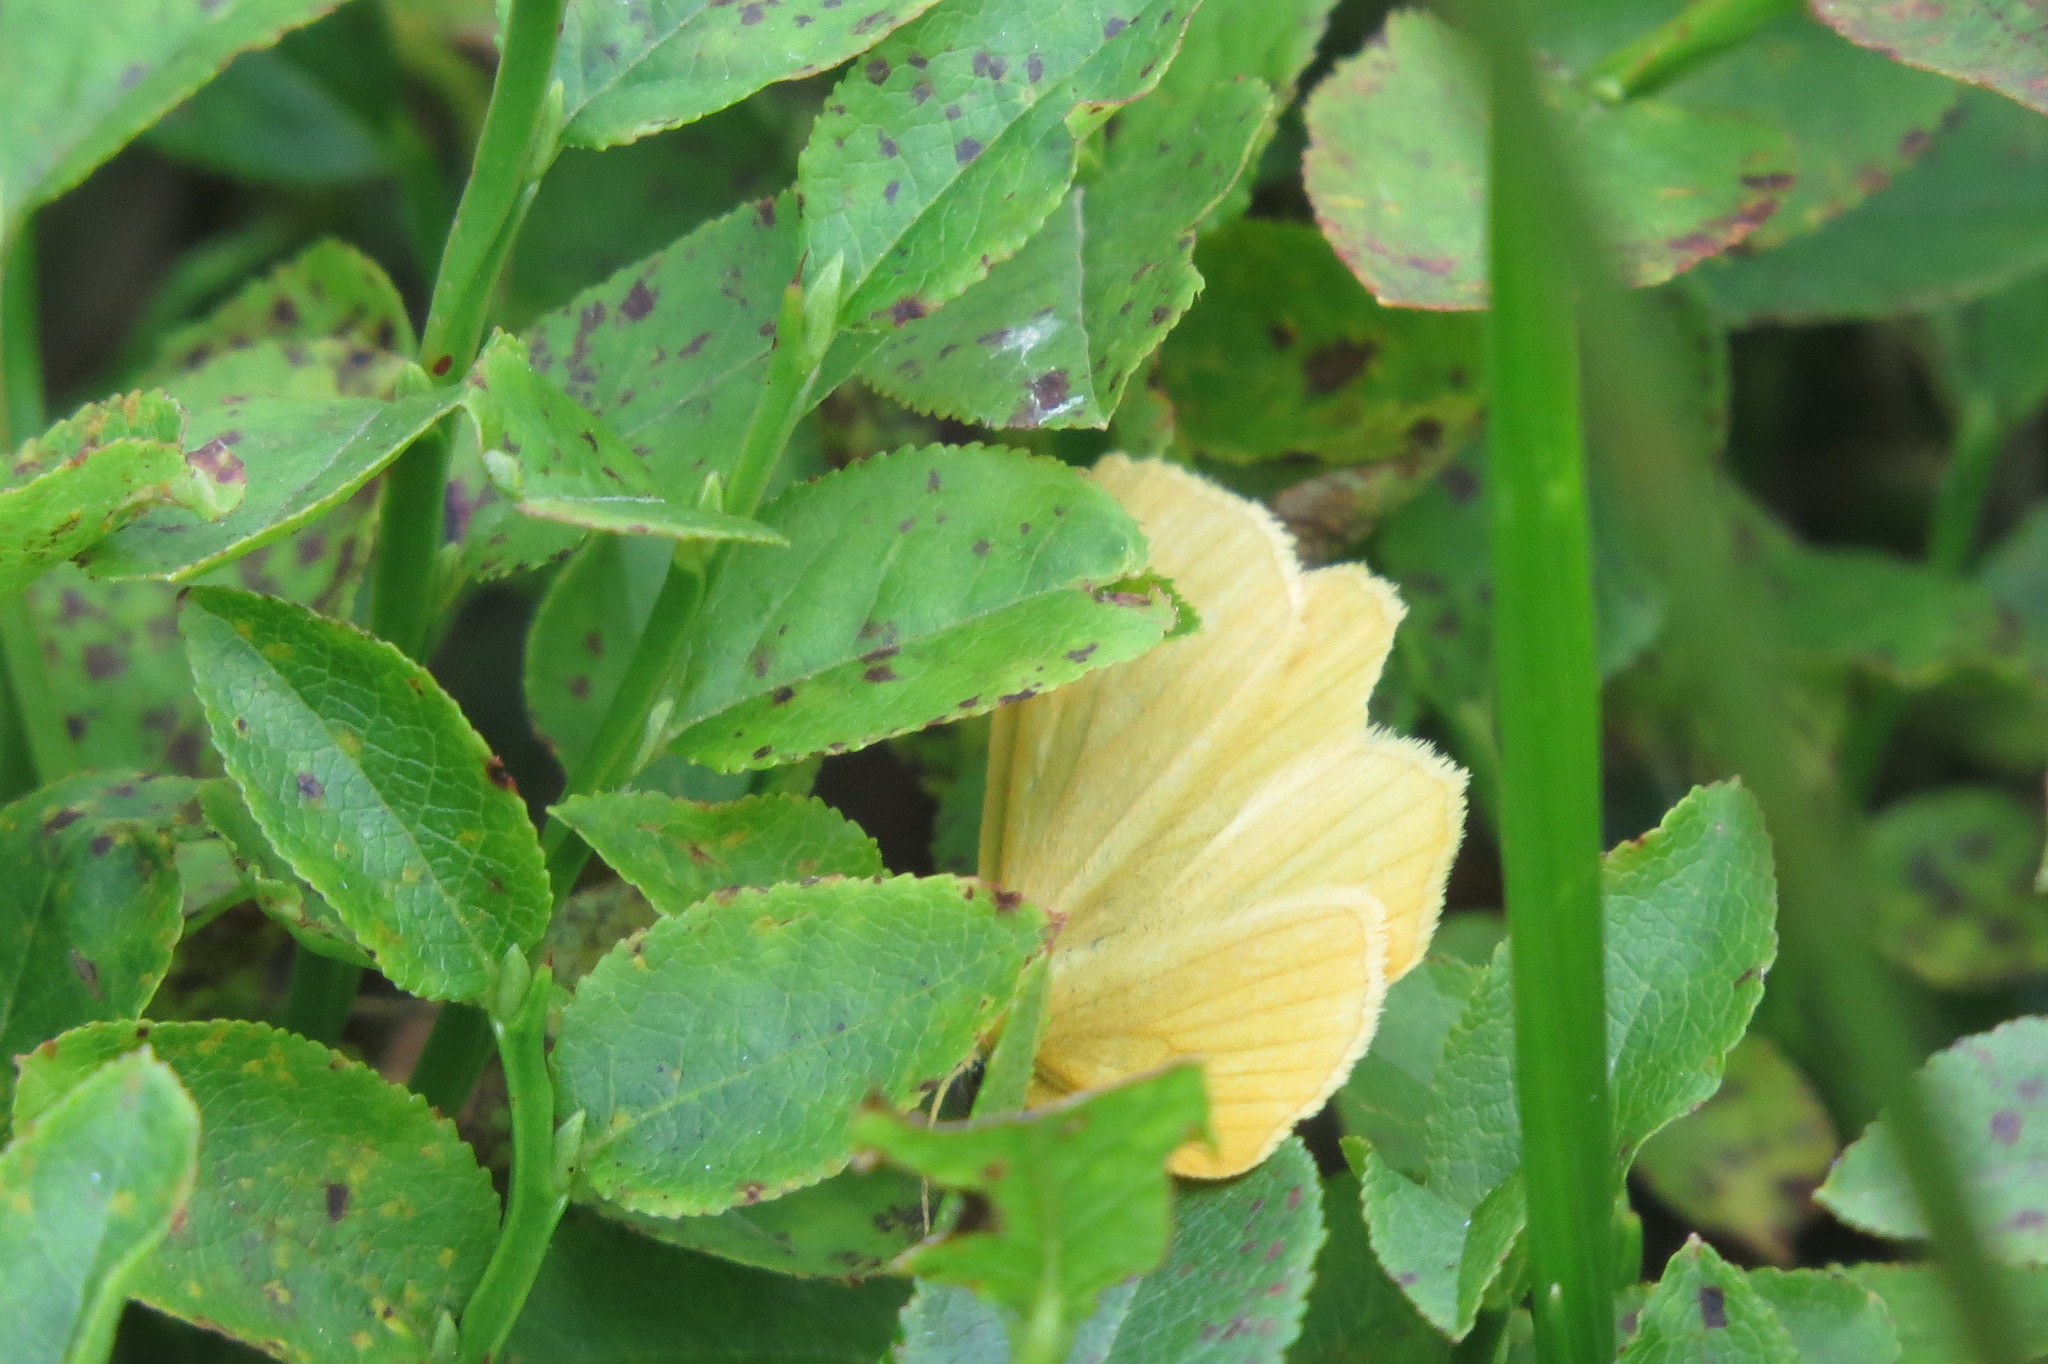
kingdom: Animalia
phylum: Arthropoda
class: Insecta
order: Lepidoptera
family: Geometridae
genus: Crocota
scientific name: Crocota tinctaria
